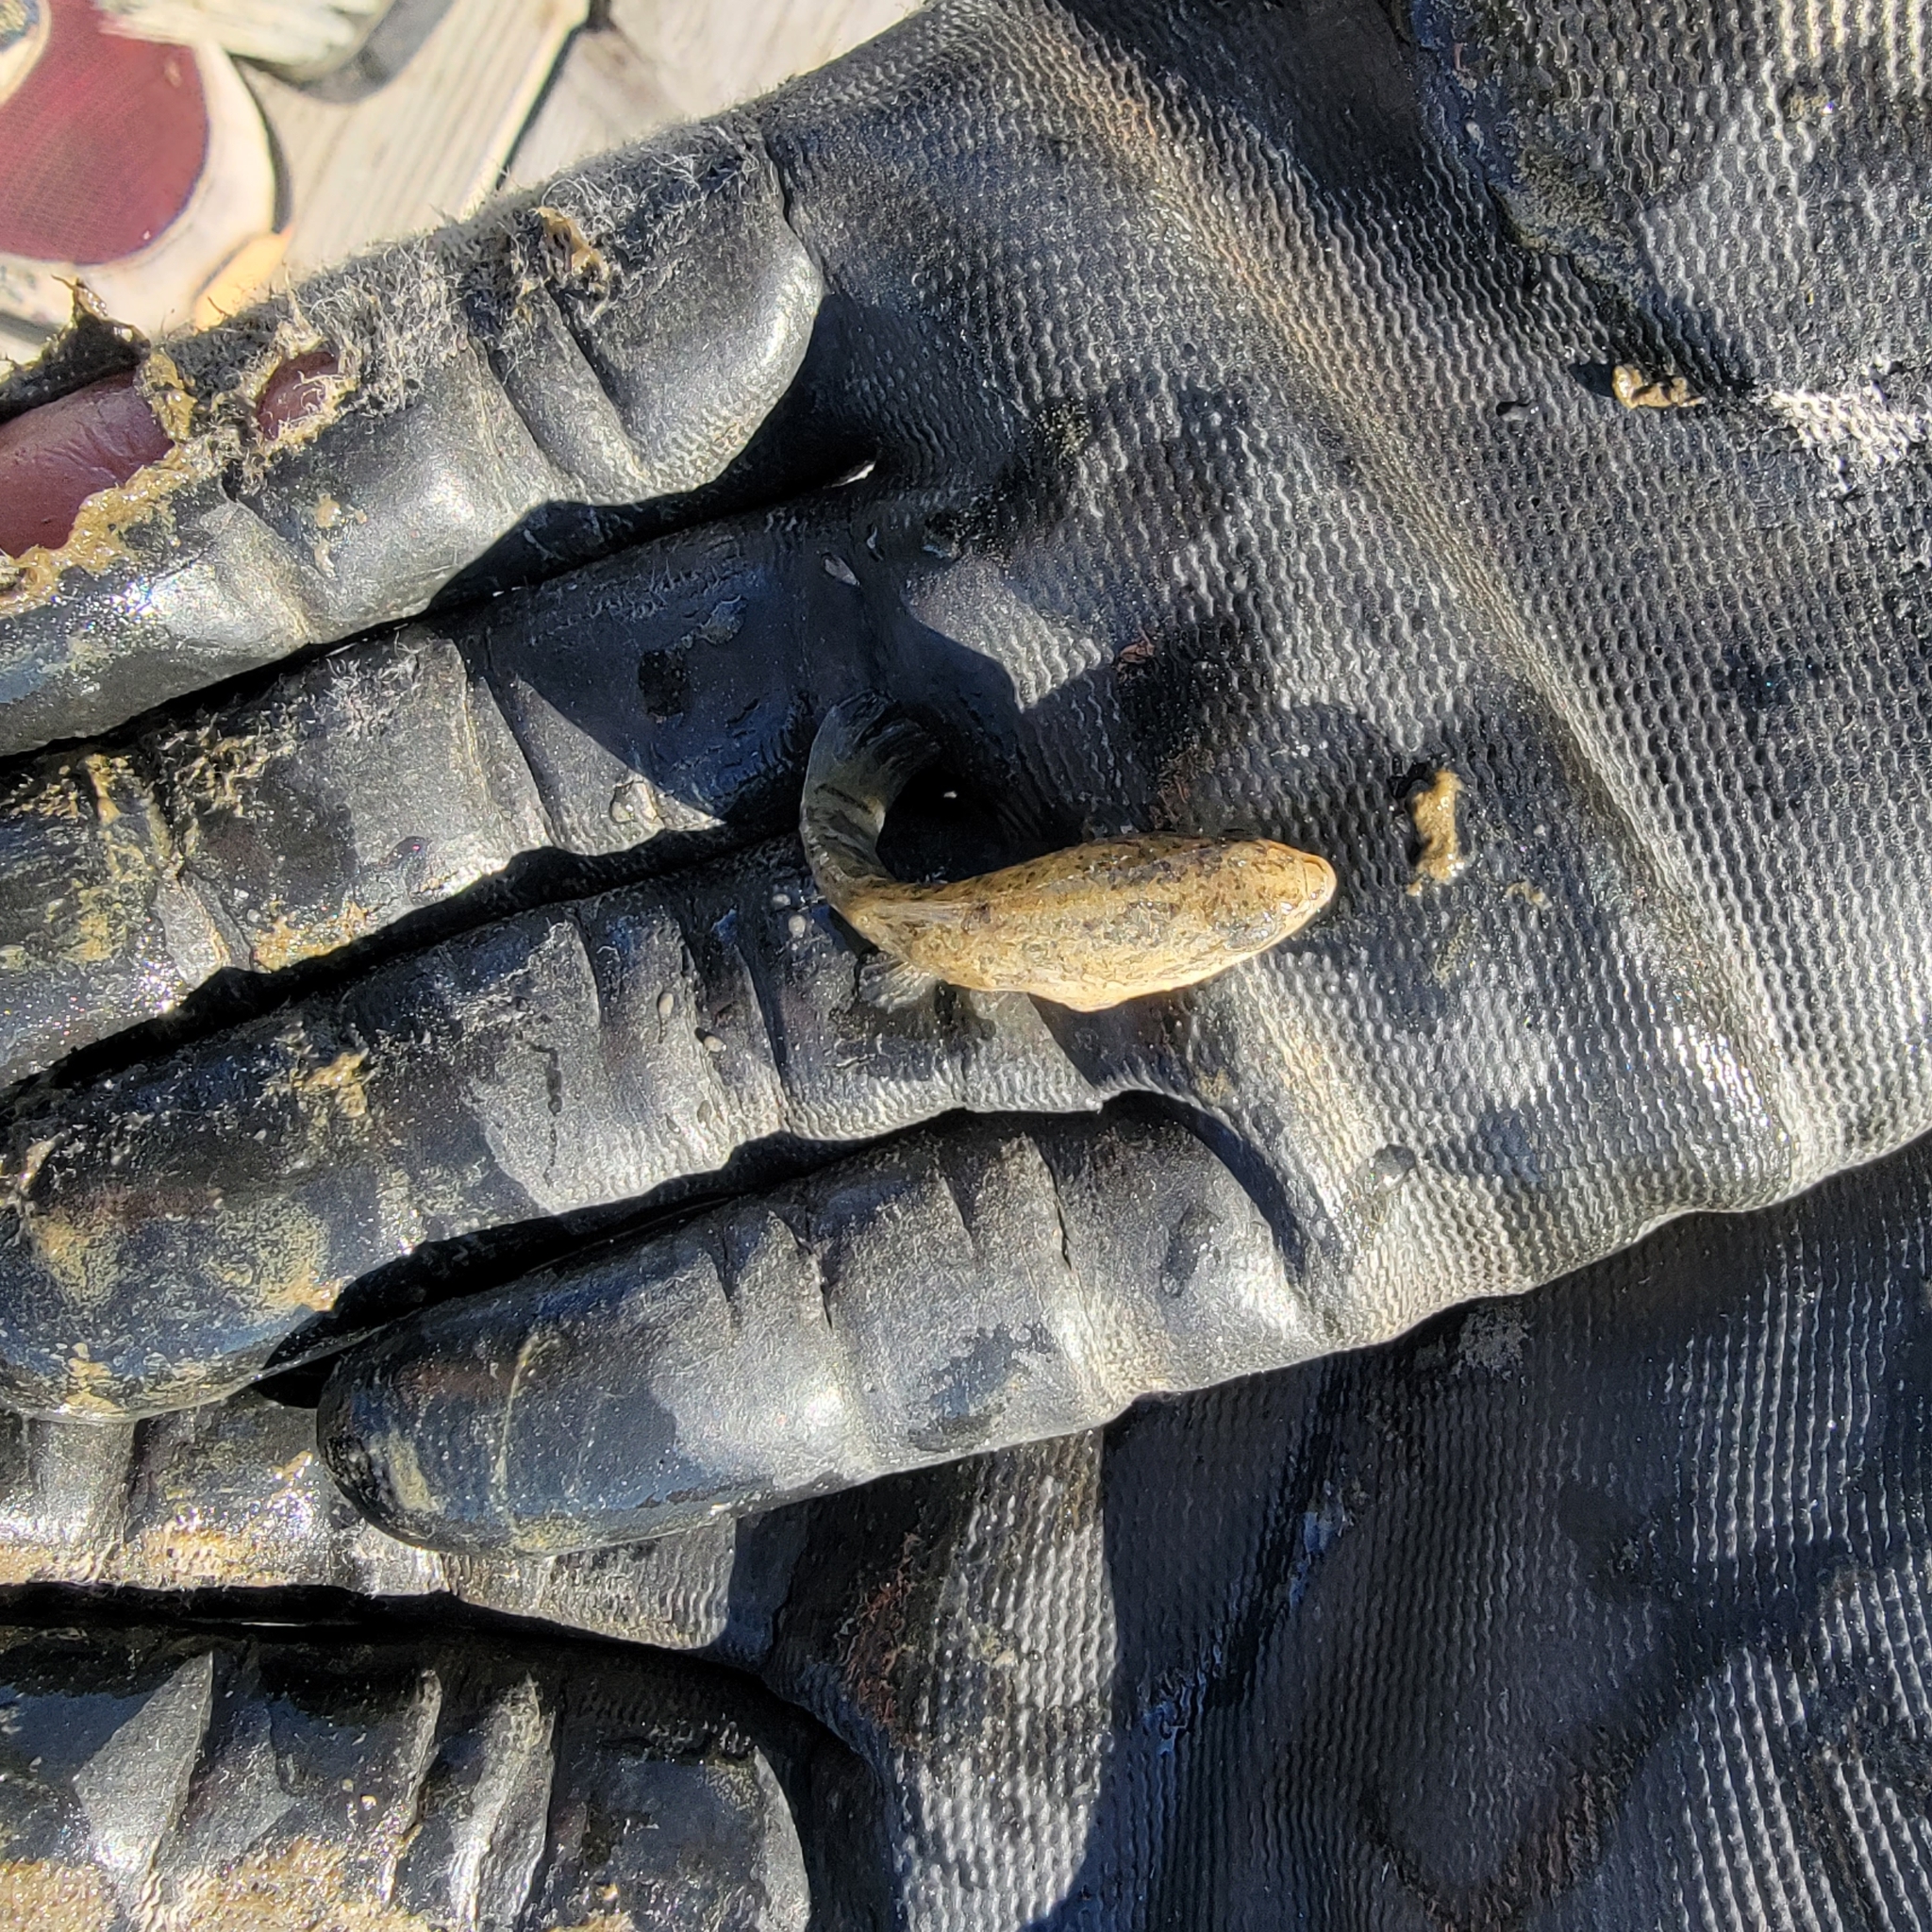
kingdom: Animalia
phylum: Chordata
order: Cyprinodontiformes
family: Cyprinodontidae
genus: Cyprinodon
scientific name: Cyprinodon variegatus
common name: Sheepshead minnow
